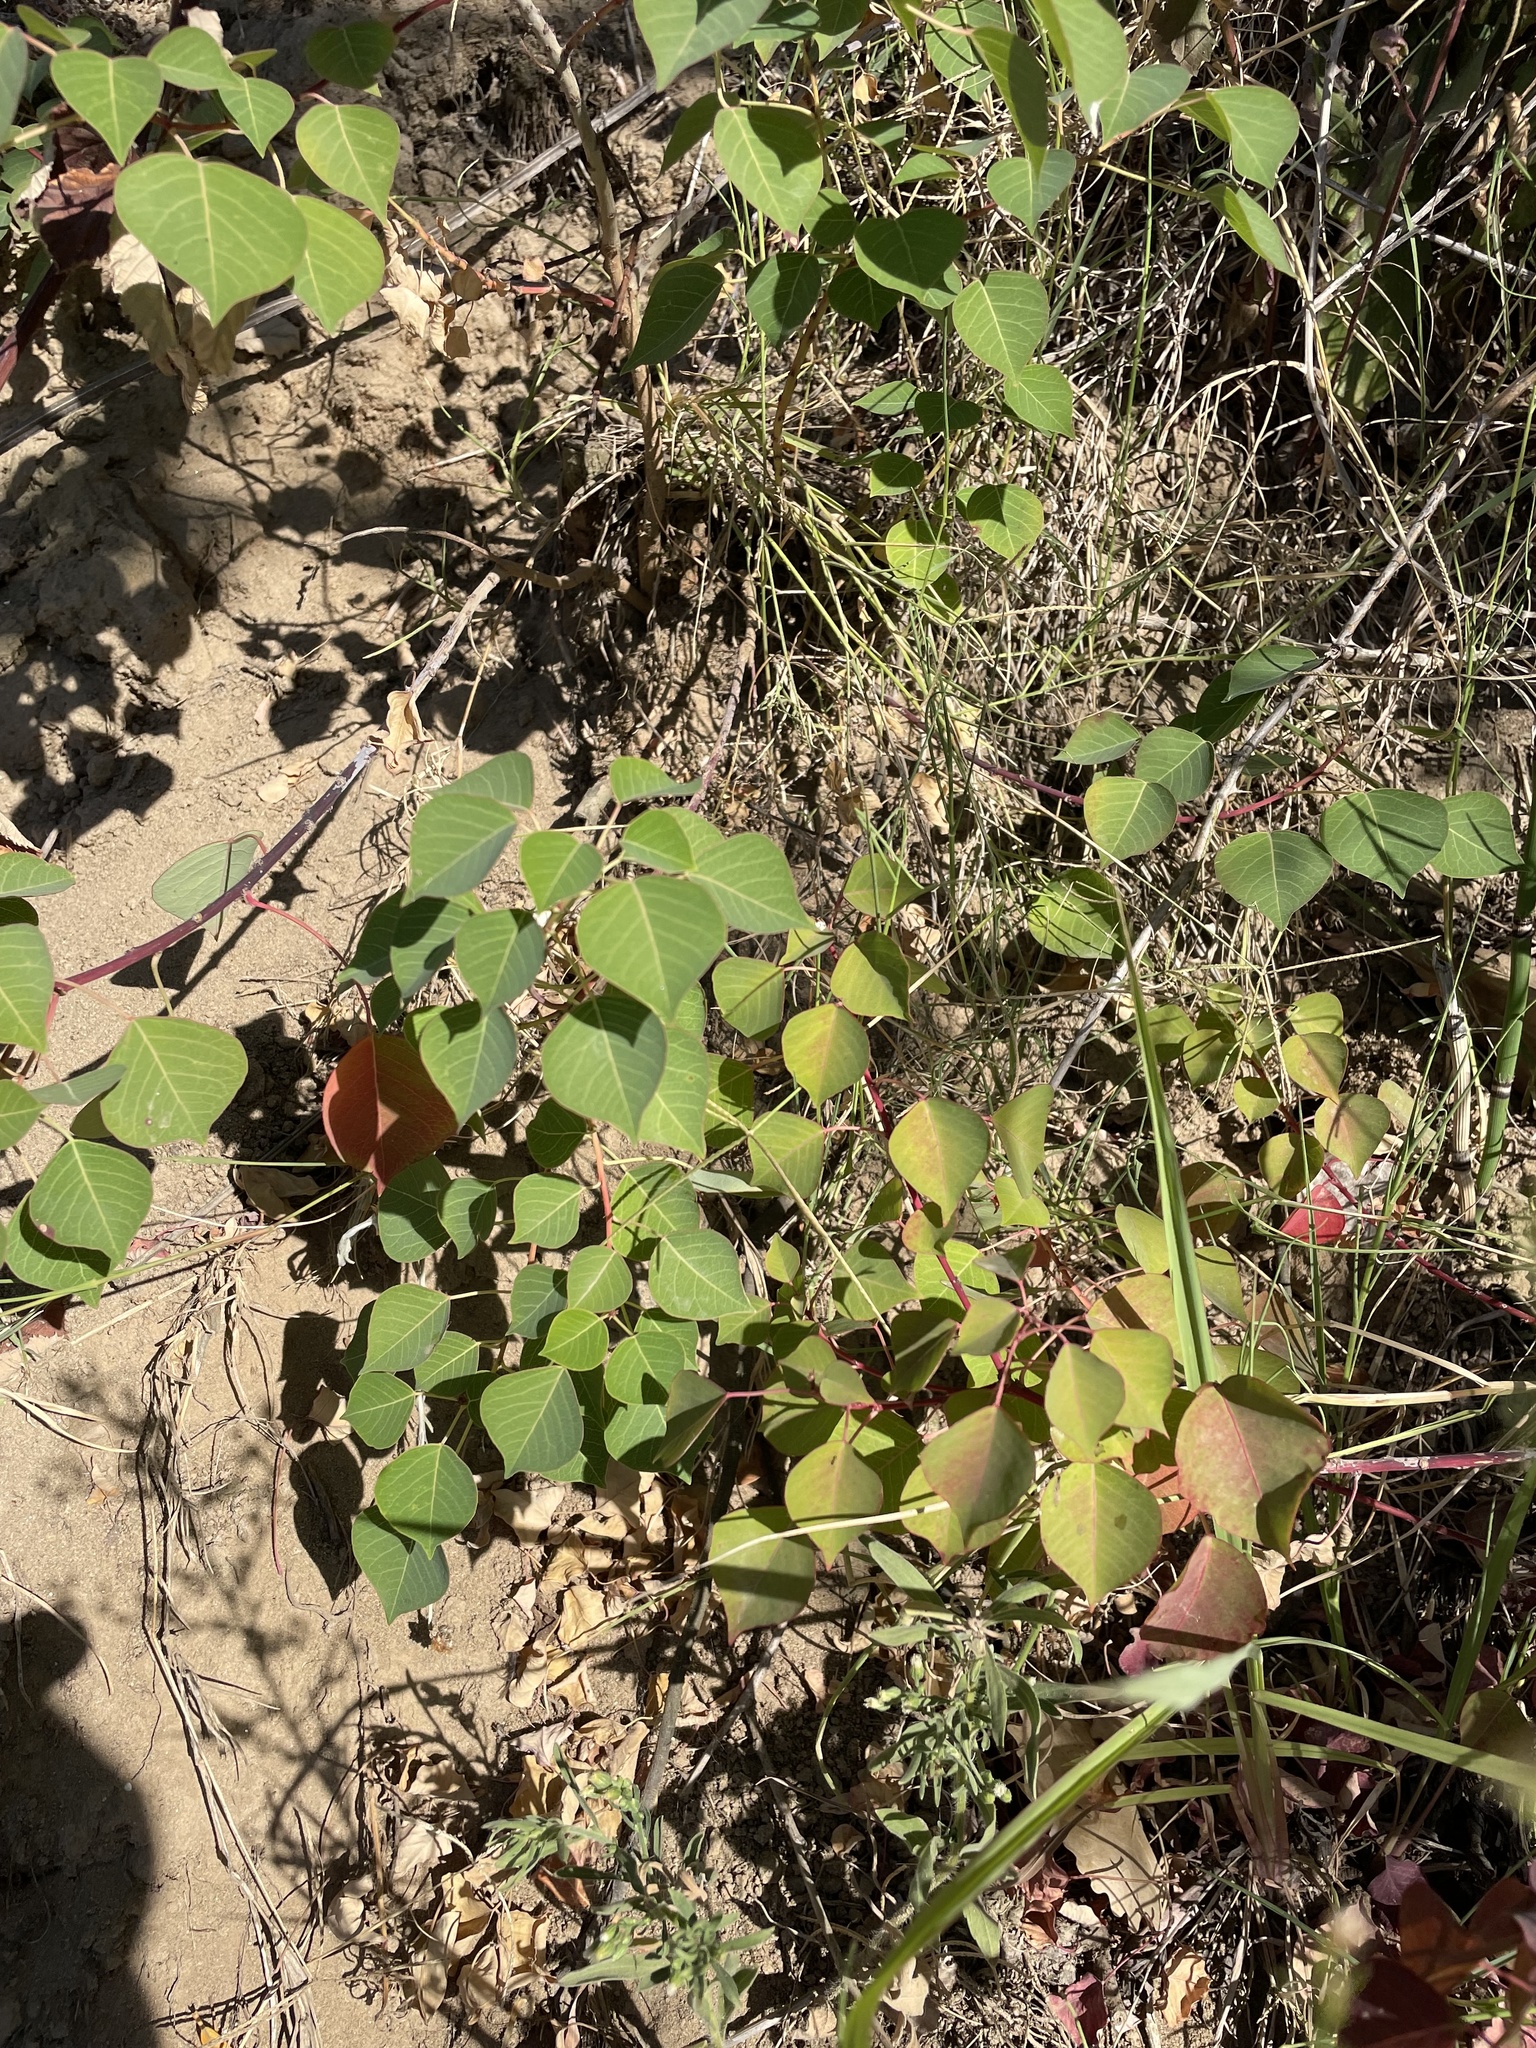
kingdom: Plantae
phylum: Tracheophyta
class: Magnoliopsida
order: Malpighiales
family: Euphorbiaceae
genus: Triadica
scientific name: Triadica sebifera
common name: Chinese tallow
